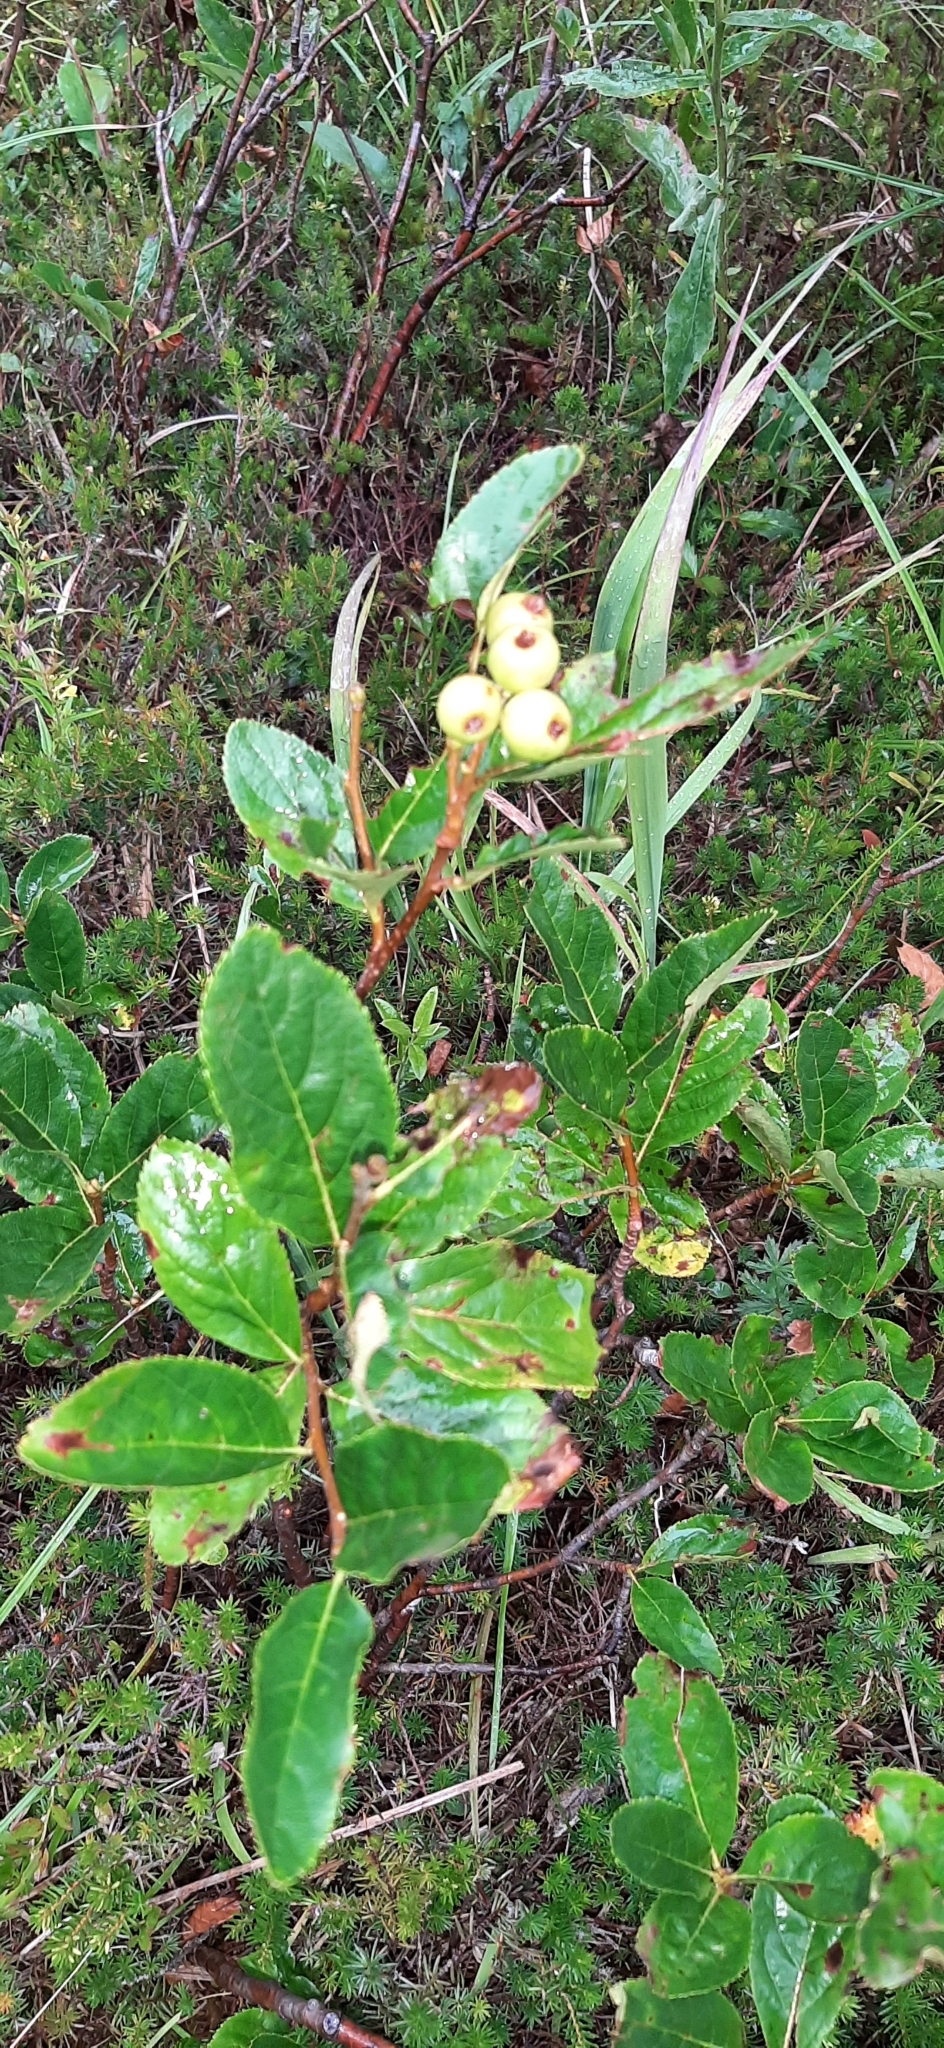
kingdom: Plantae
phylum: Tracheophyta
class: Magnoliopsida
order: Rosales
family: Rosaceae
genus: Chamaemespilus
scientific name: Chamaemespilus alpina
